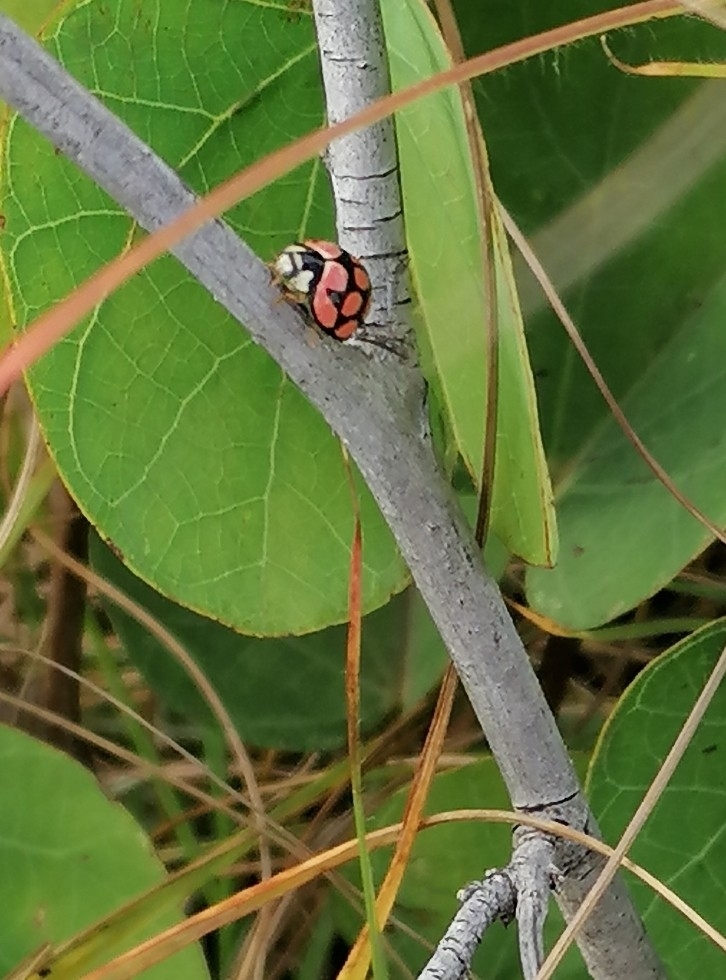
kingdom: Animalia
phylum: Arthropoda
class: Insecta
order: Coleoptera
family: Coccinellidae
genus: Cheilomenes
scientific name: Cheilomenes lunata
